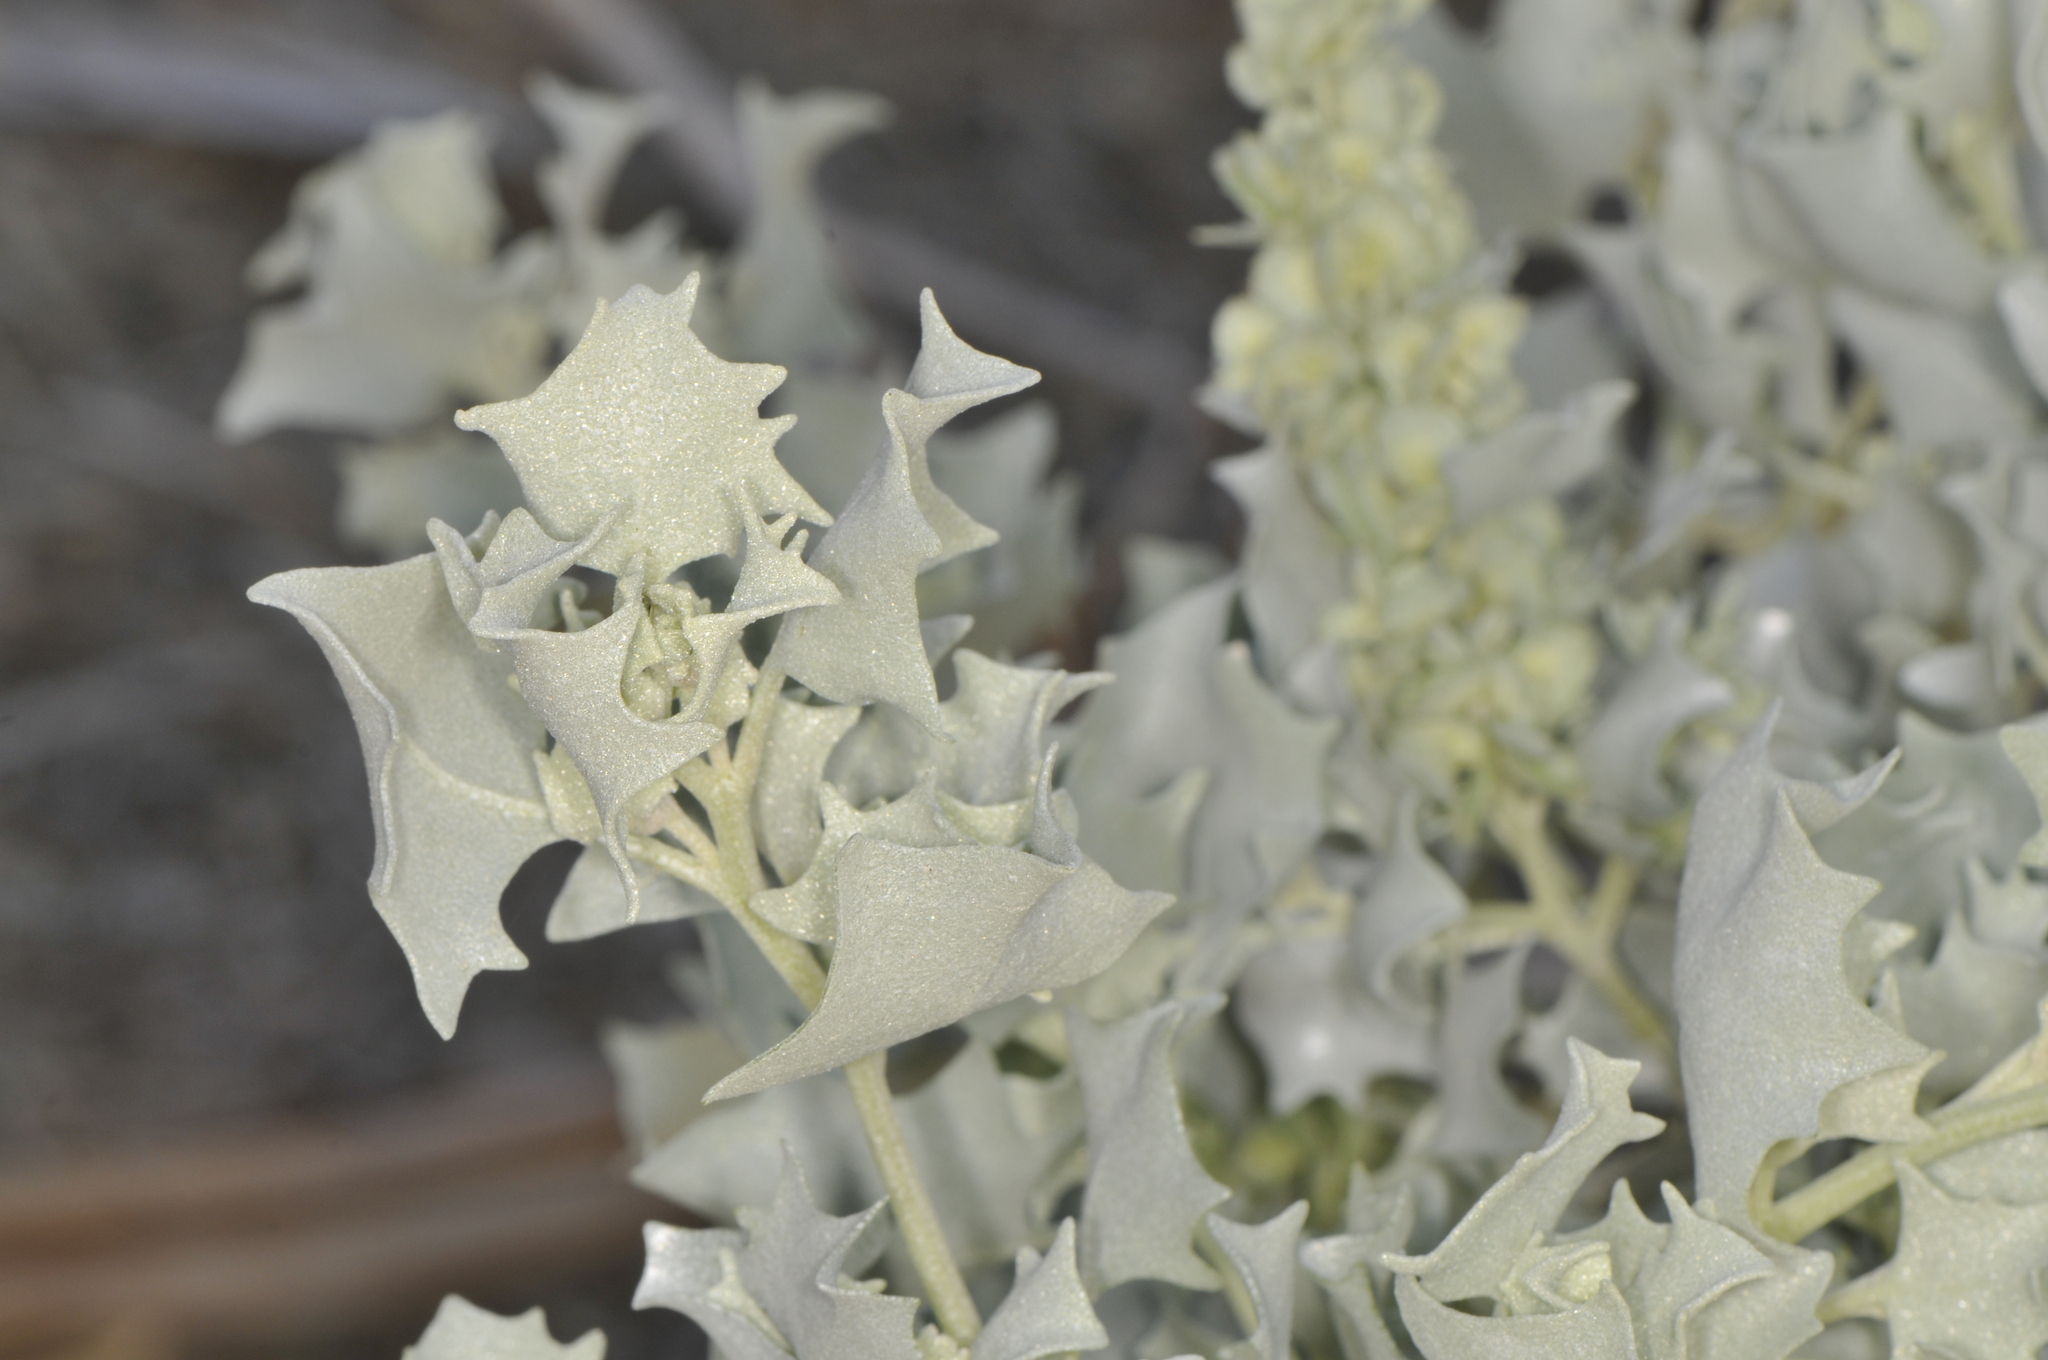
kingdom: Plantae
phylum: Tracheophyta
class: Magnoliopsida
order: Caryophyllales
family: Amaranthaceae
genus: Atriplex
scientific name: Atriplex hymenelytra
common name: Desert-holly
